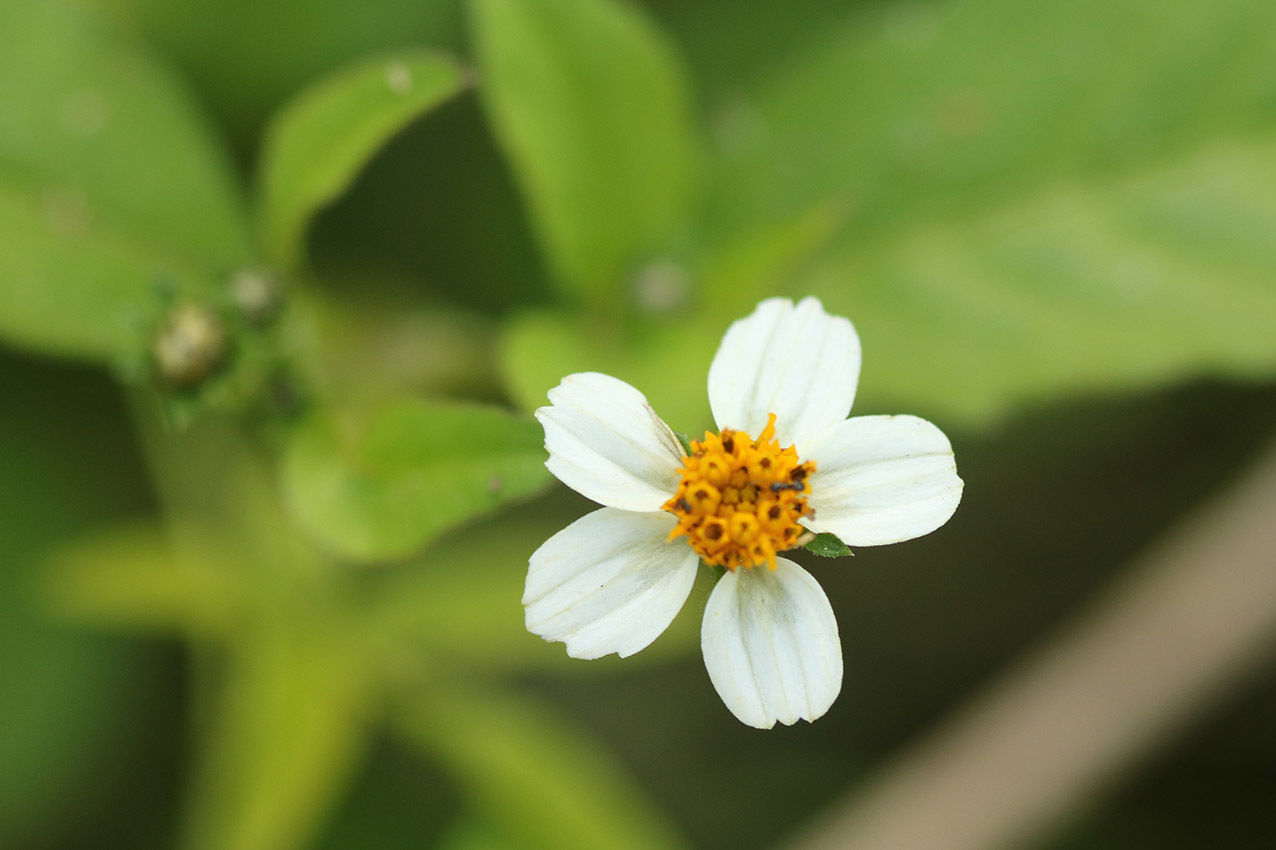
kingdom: Plantae
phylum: Tracheophyta
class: Magnoliopsida
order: Asterales
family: Asteraceae
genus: Bidens
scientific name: Bidens pilosa
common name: Black-jack
